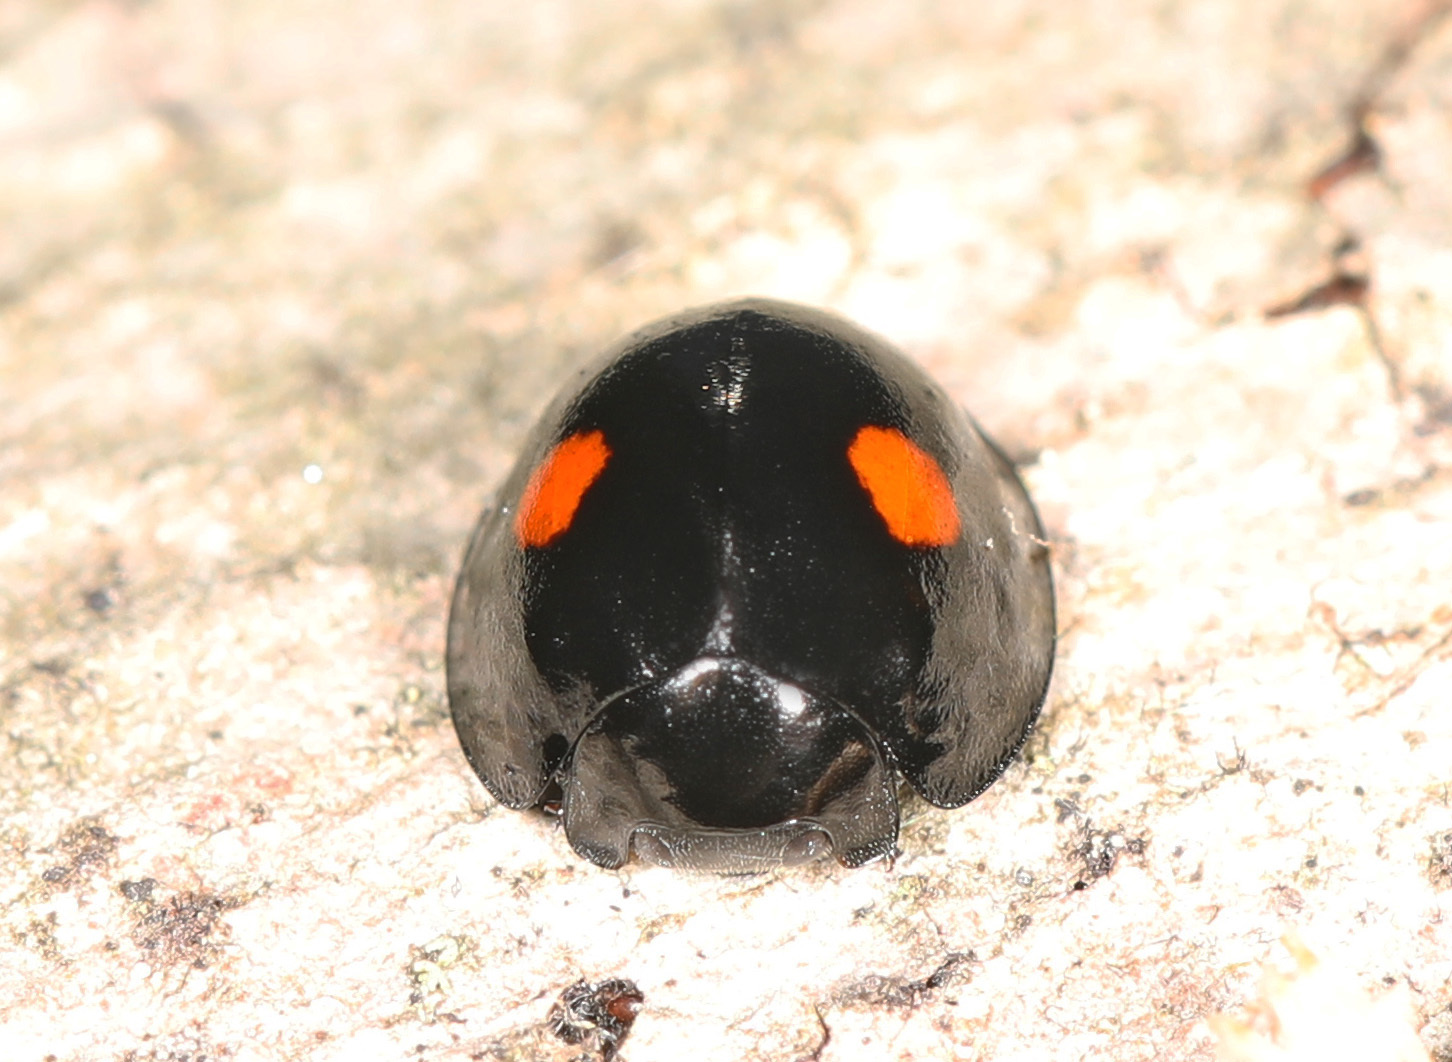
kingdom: Animalia
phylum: Arthropoda
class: Insecta
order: Coleoptera
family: Coccinellidae
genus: Chilocorus
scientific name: Chilocorus stigma
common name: Twicestabbed lady beetle
